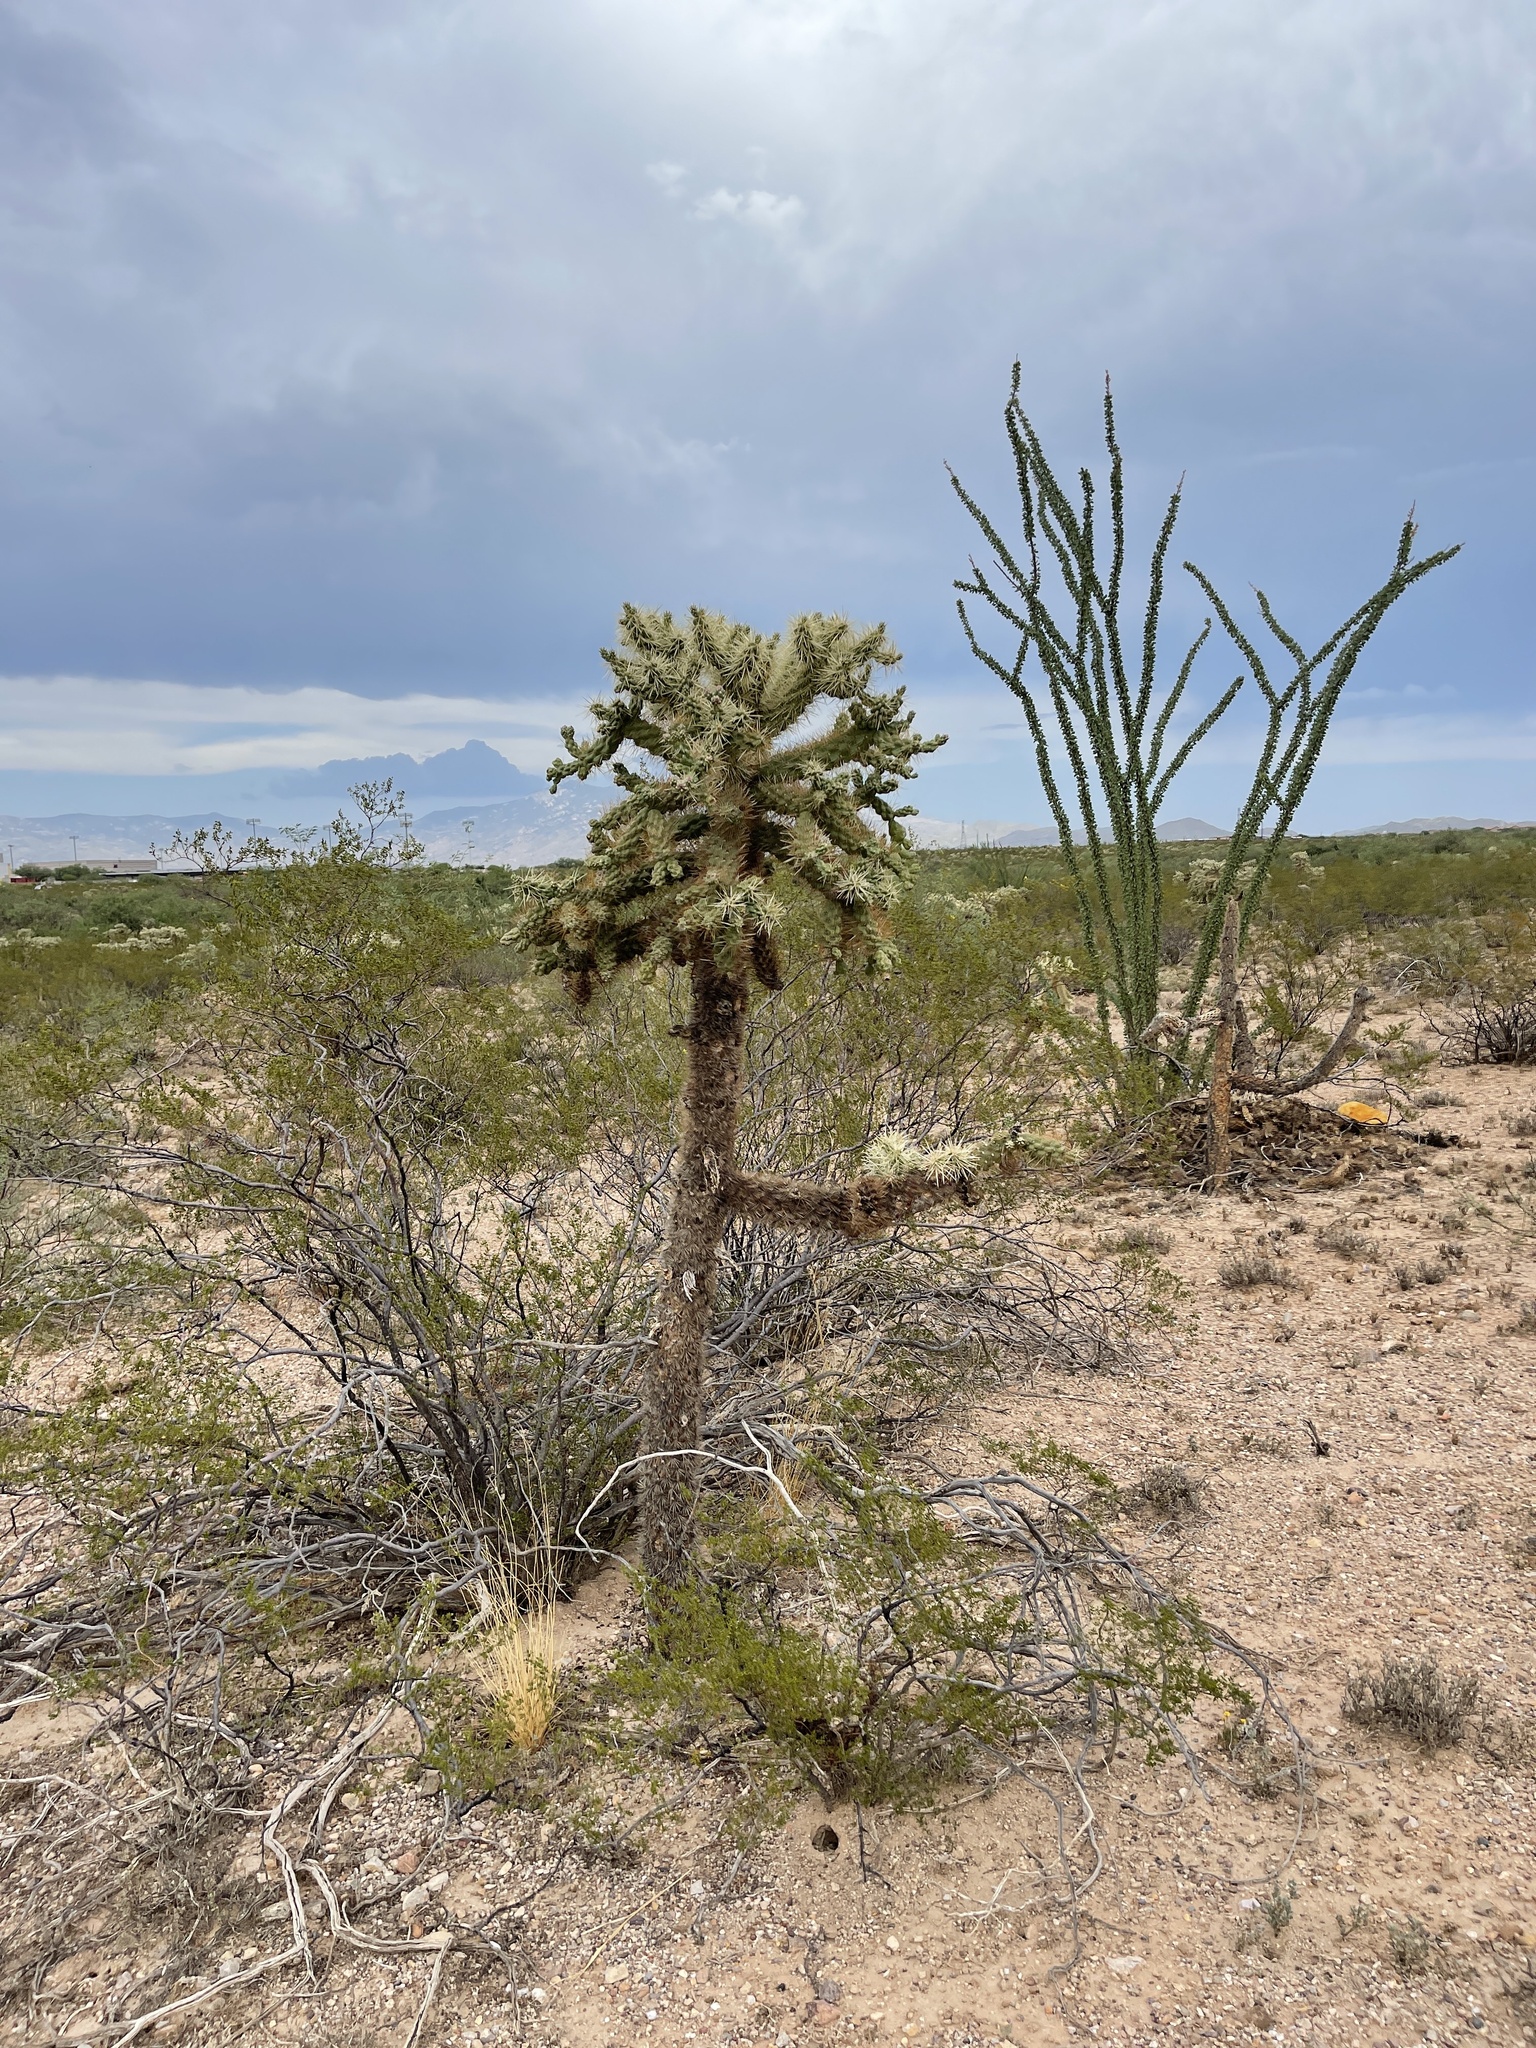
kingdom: Plantae
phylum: Tracheophyta
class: Magnoliopsida
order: Caryophyllales
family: Cactaceae
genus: Cylindropuntia
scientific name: Cylindropuntia fulgida
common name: Jumping cholla
